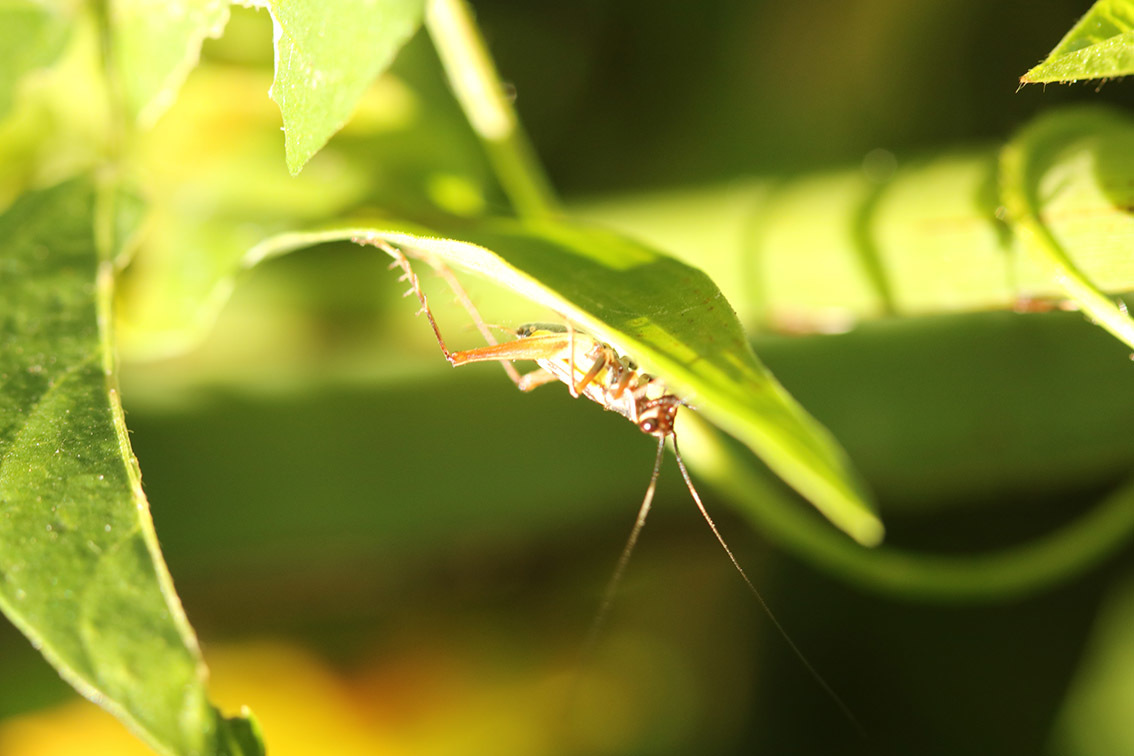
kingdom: Animalia
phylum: Arthropoda
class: Insecta
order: Orthoptera
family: Trigonidiidae
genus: Phylloscyrtus
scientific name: Phylloscyrtus amoenus
